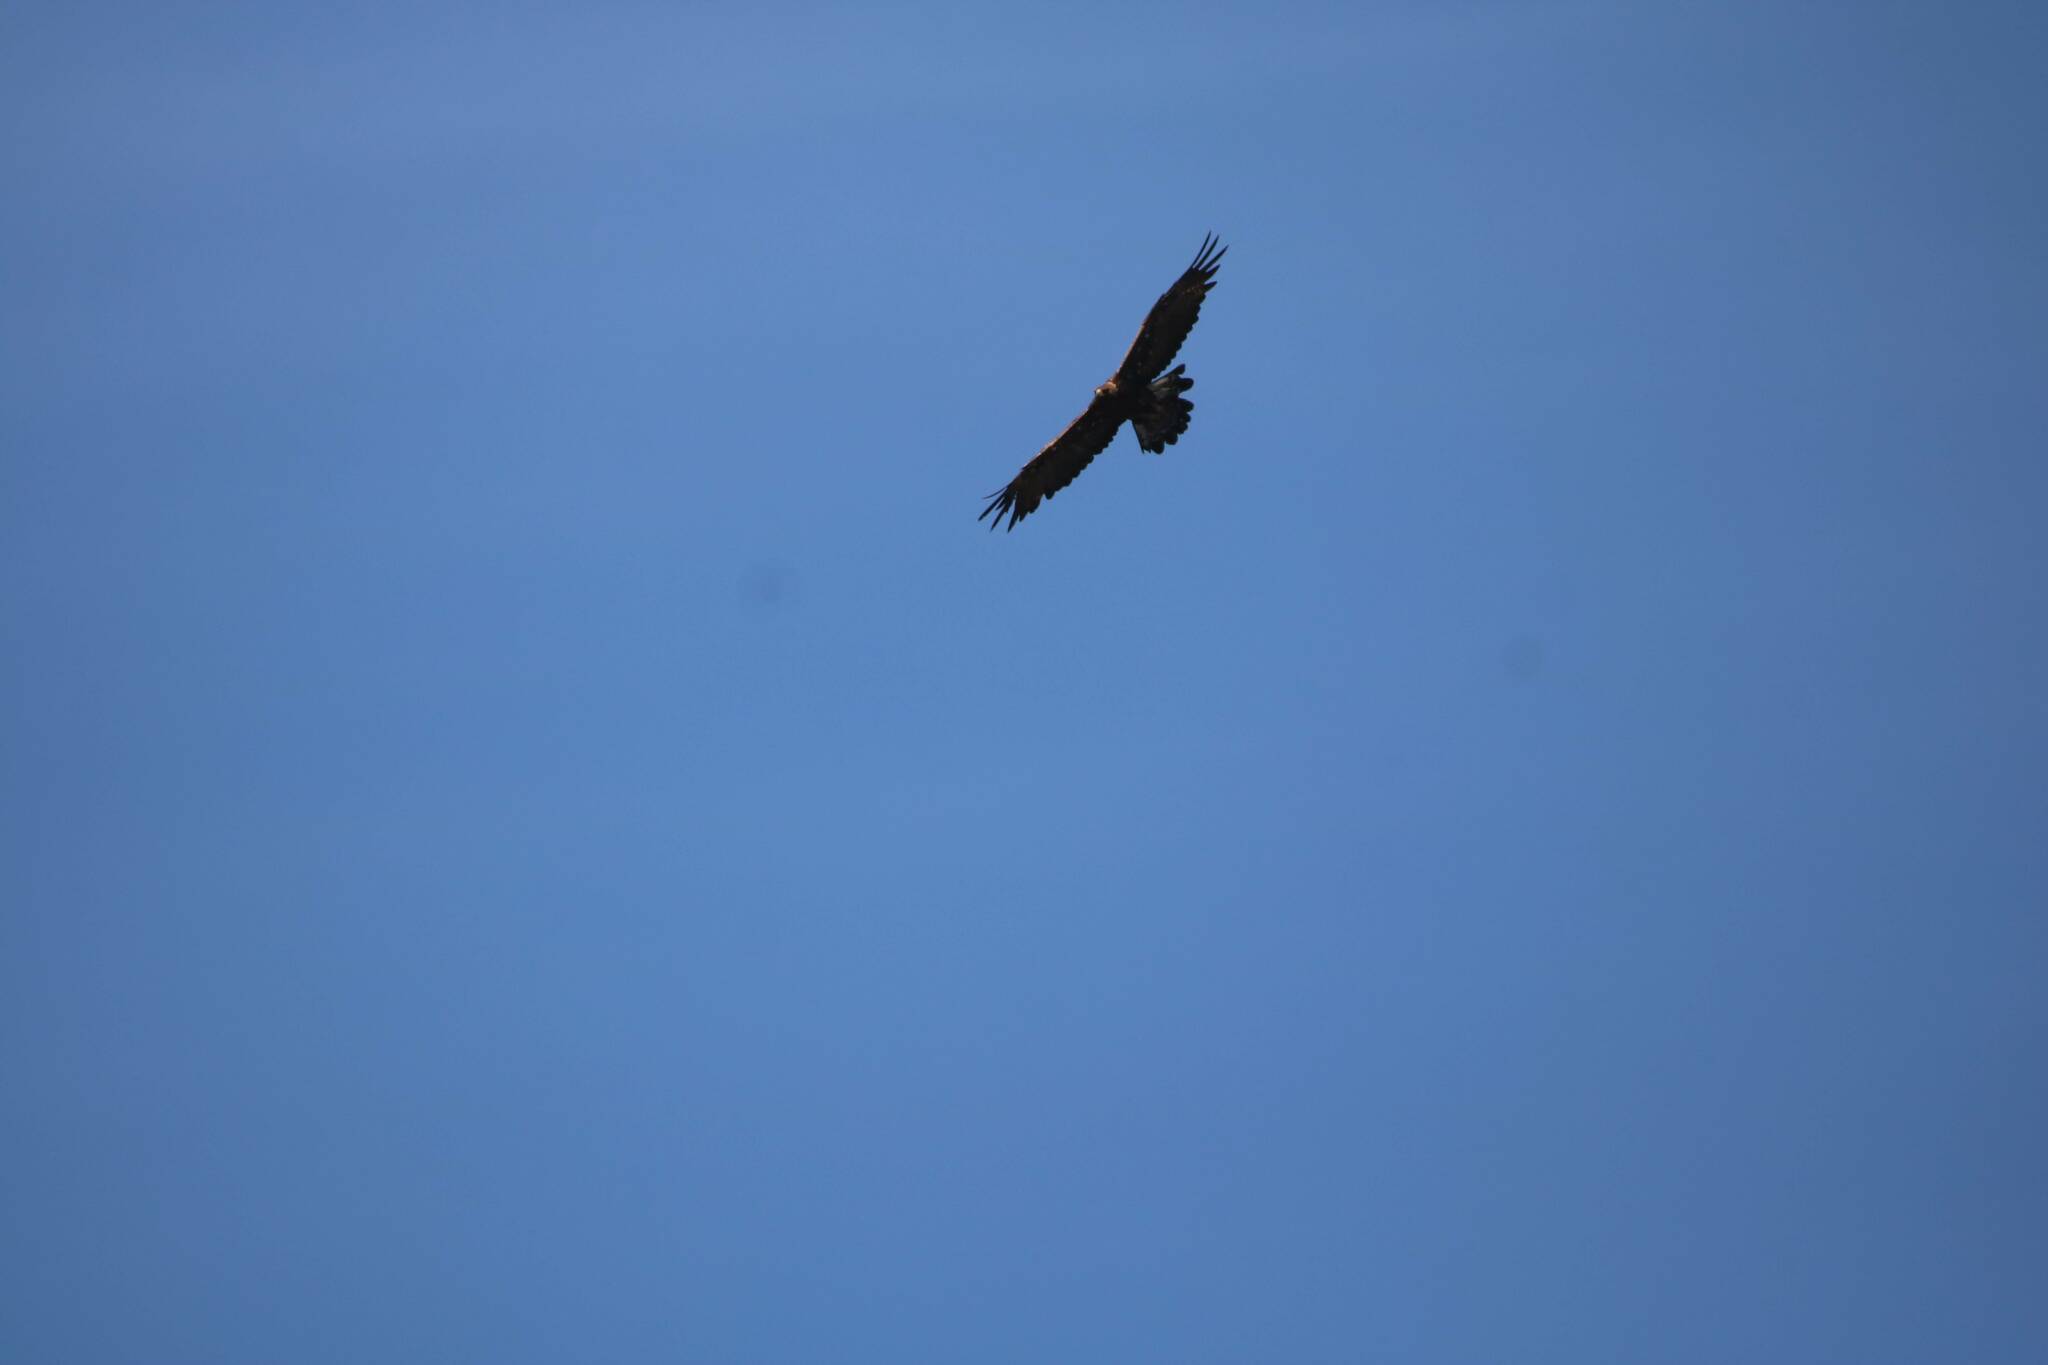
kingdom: Animalia
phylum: Chordata
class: Aves
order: Accipitriformes
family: Accipitridae
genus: Aquila
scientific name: Aquila chrysaetos
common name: Golden eagle
